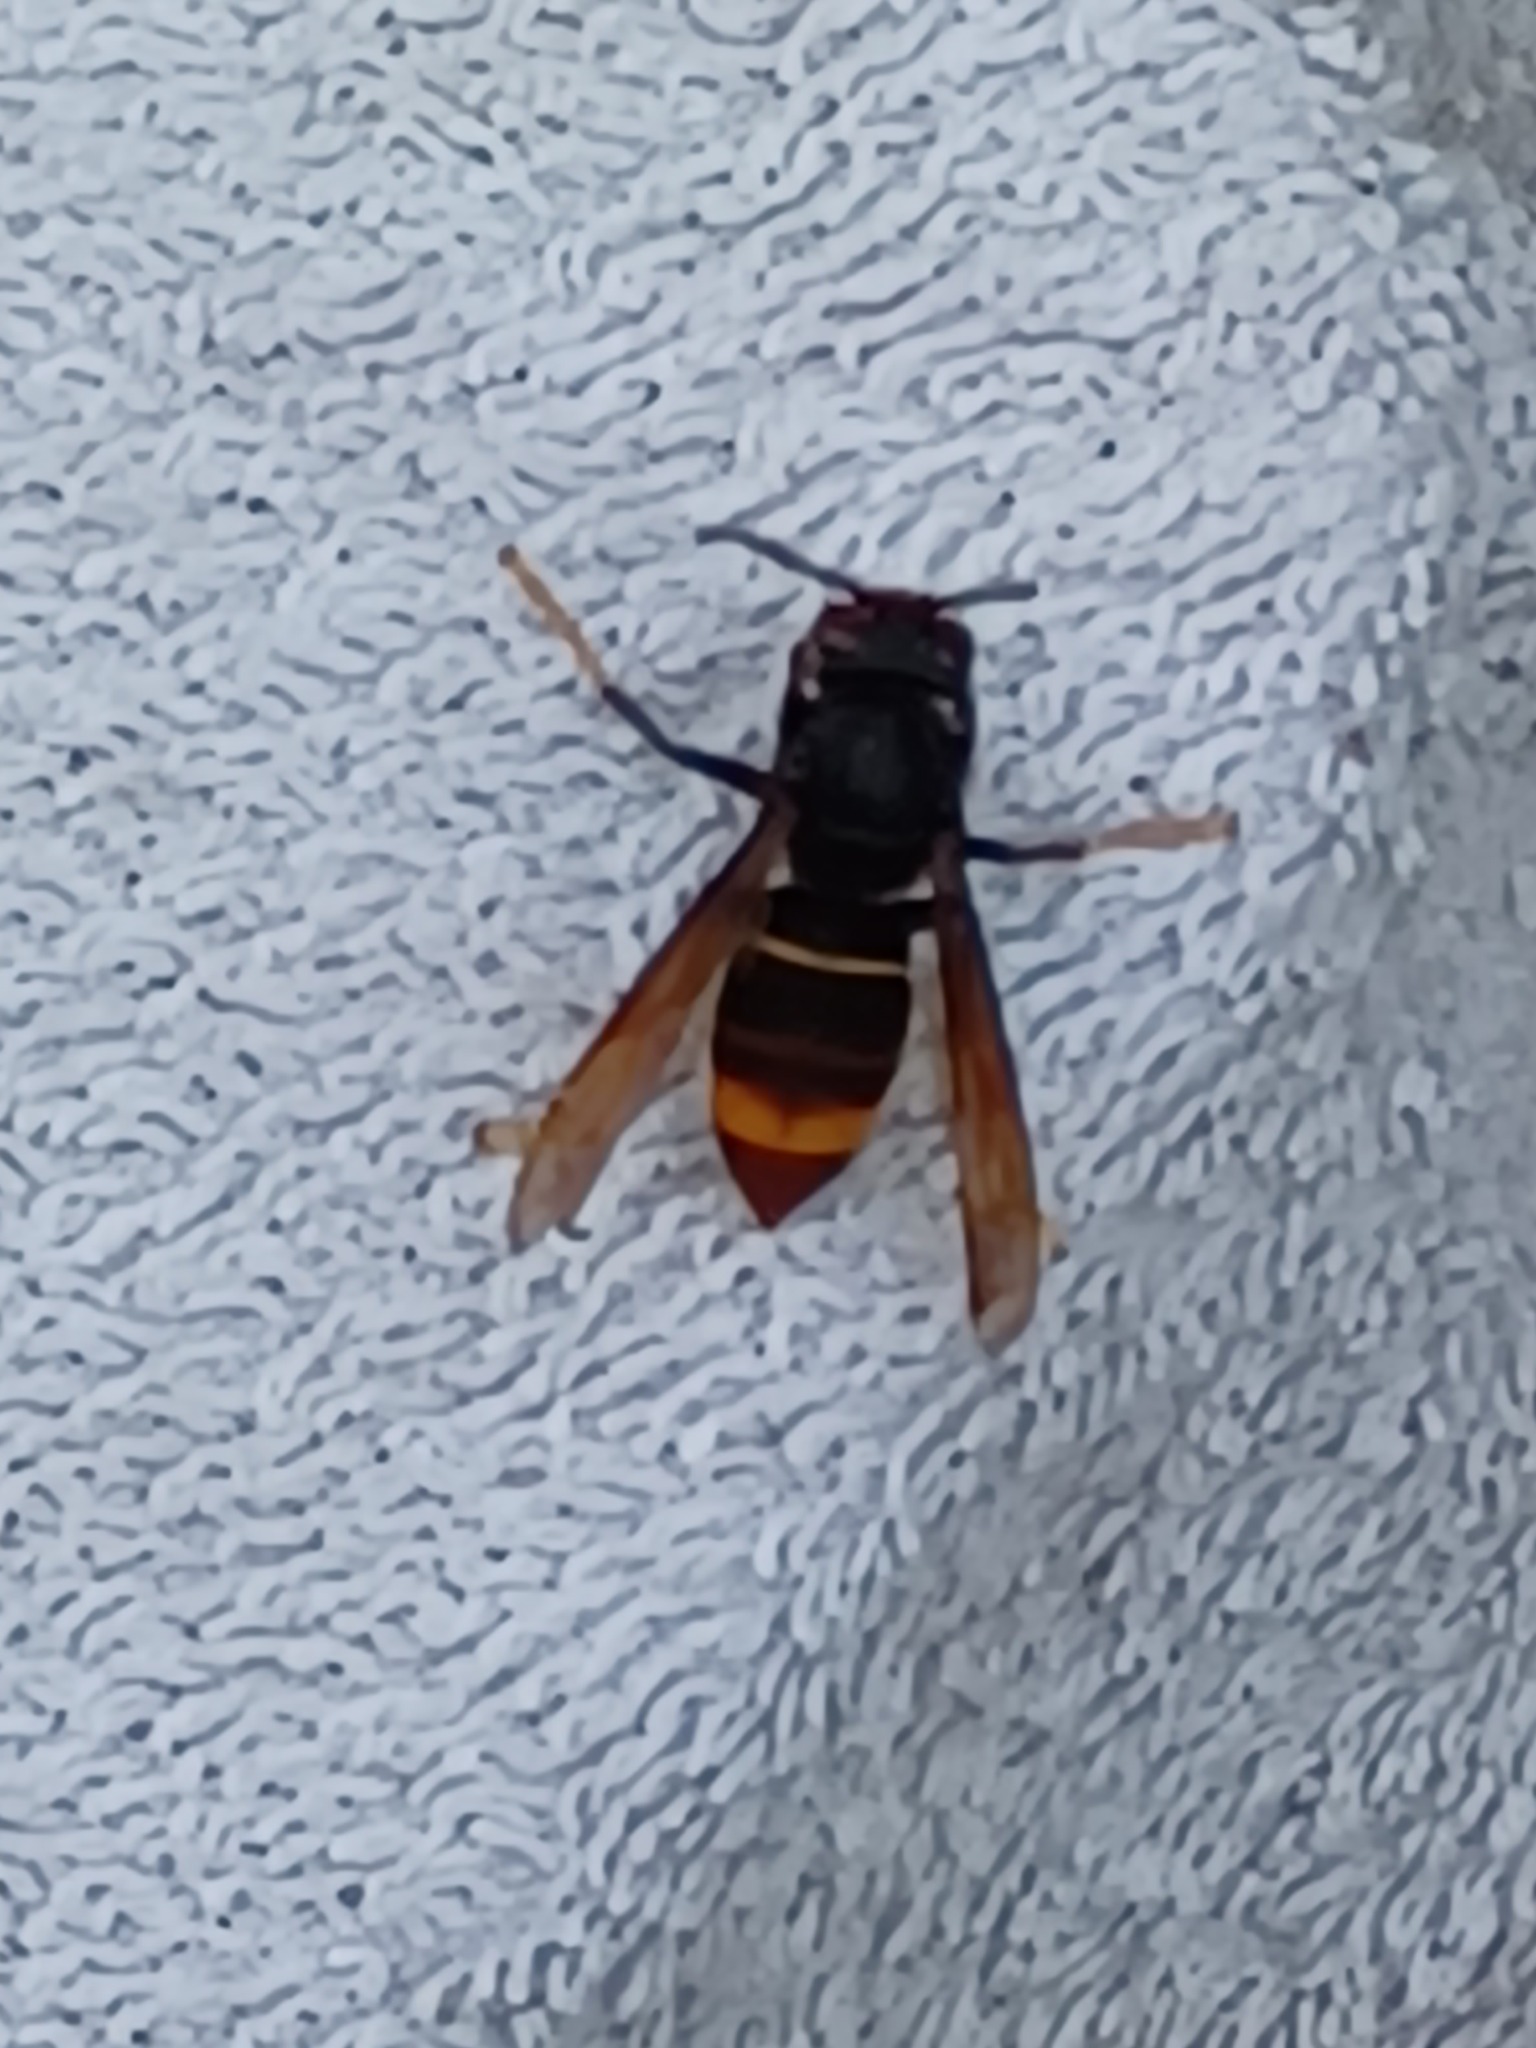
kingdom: Animalia
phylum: Arthropoda
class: Insecta
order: Hymenoptera
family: Vespidae
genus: Vespa
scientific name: Vespa velutina
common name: Asian hornet
